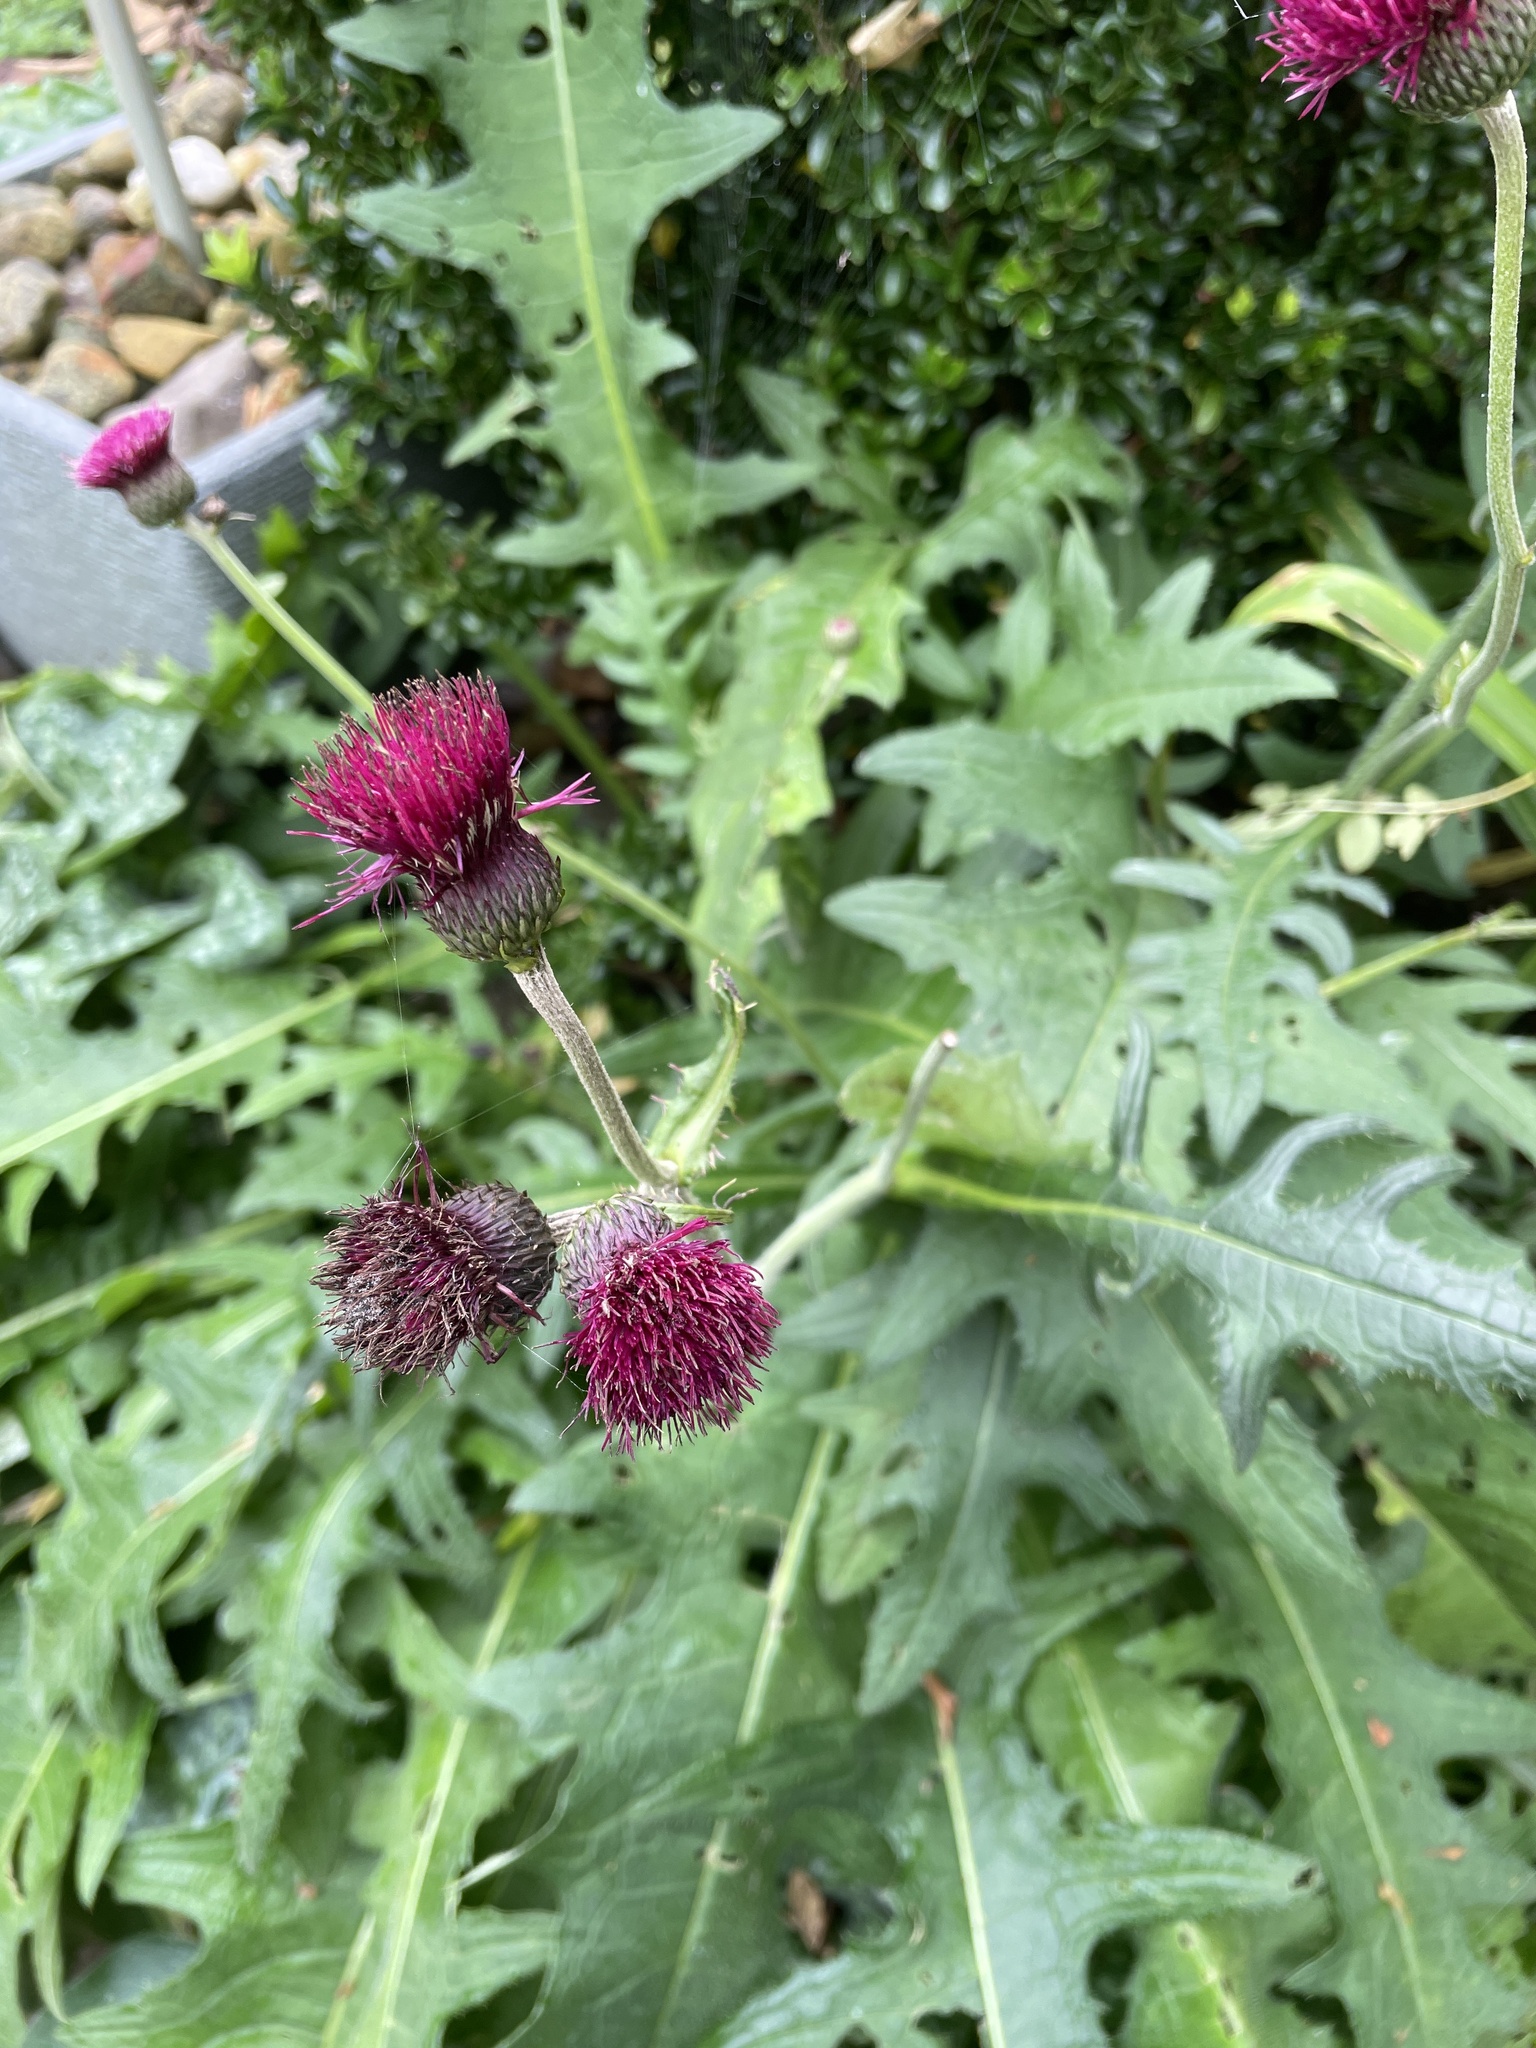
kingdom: Plantae
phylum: Tracheophyta
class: Magnoliopsida
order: Asterales
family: Asteraceae
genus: Cirsium
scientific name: Cirsium vulgare
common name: Bull thistle
